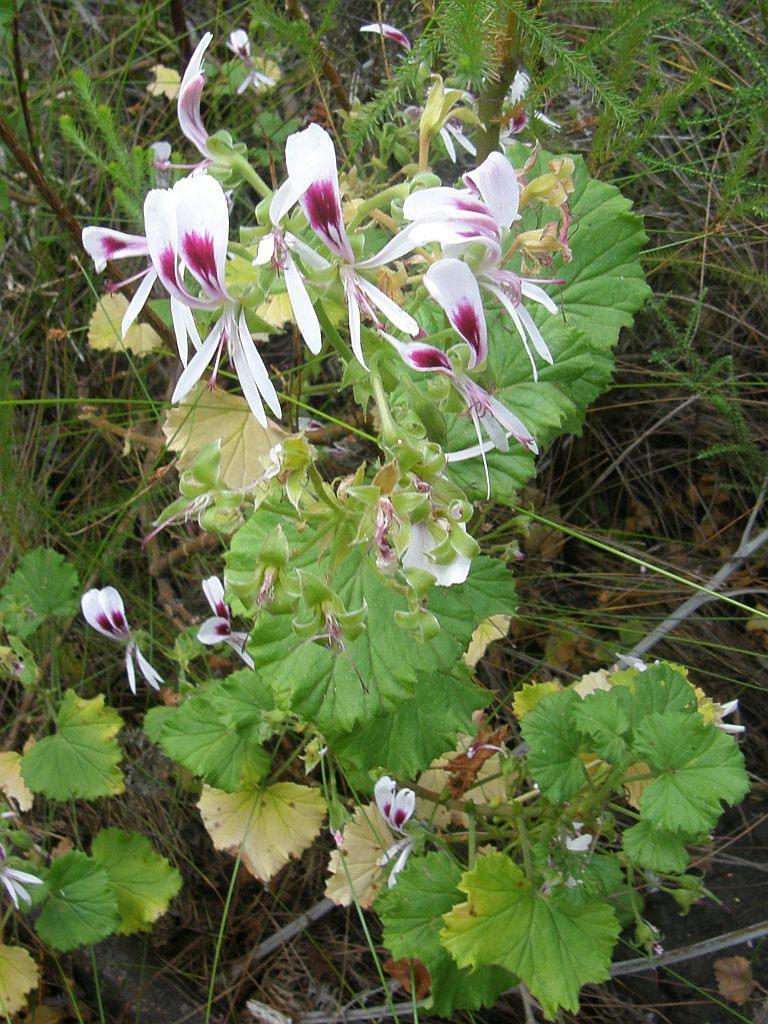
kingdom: Plantae
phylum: Tracheophyta
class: Magnoliopsida
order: Geraniales
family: Geraniaceae
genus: Pelargonium
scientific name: Pelargonium greytonense
